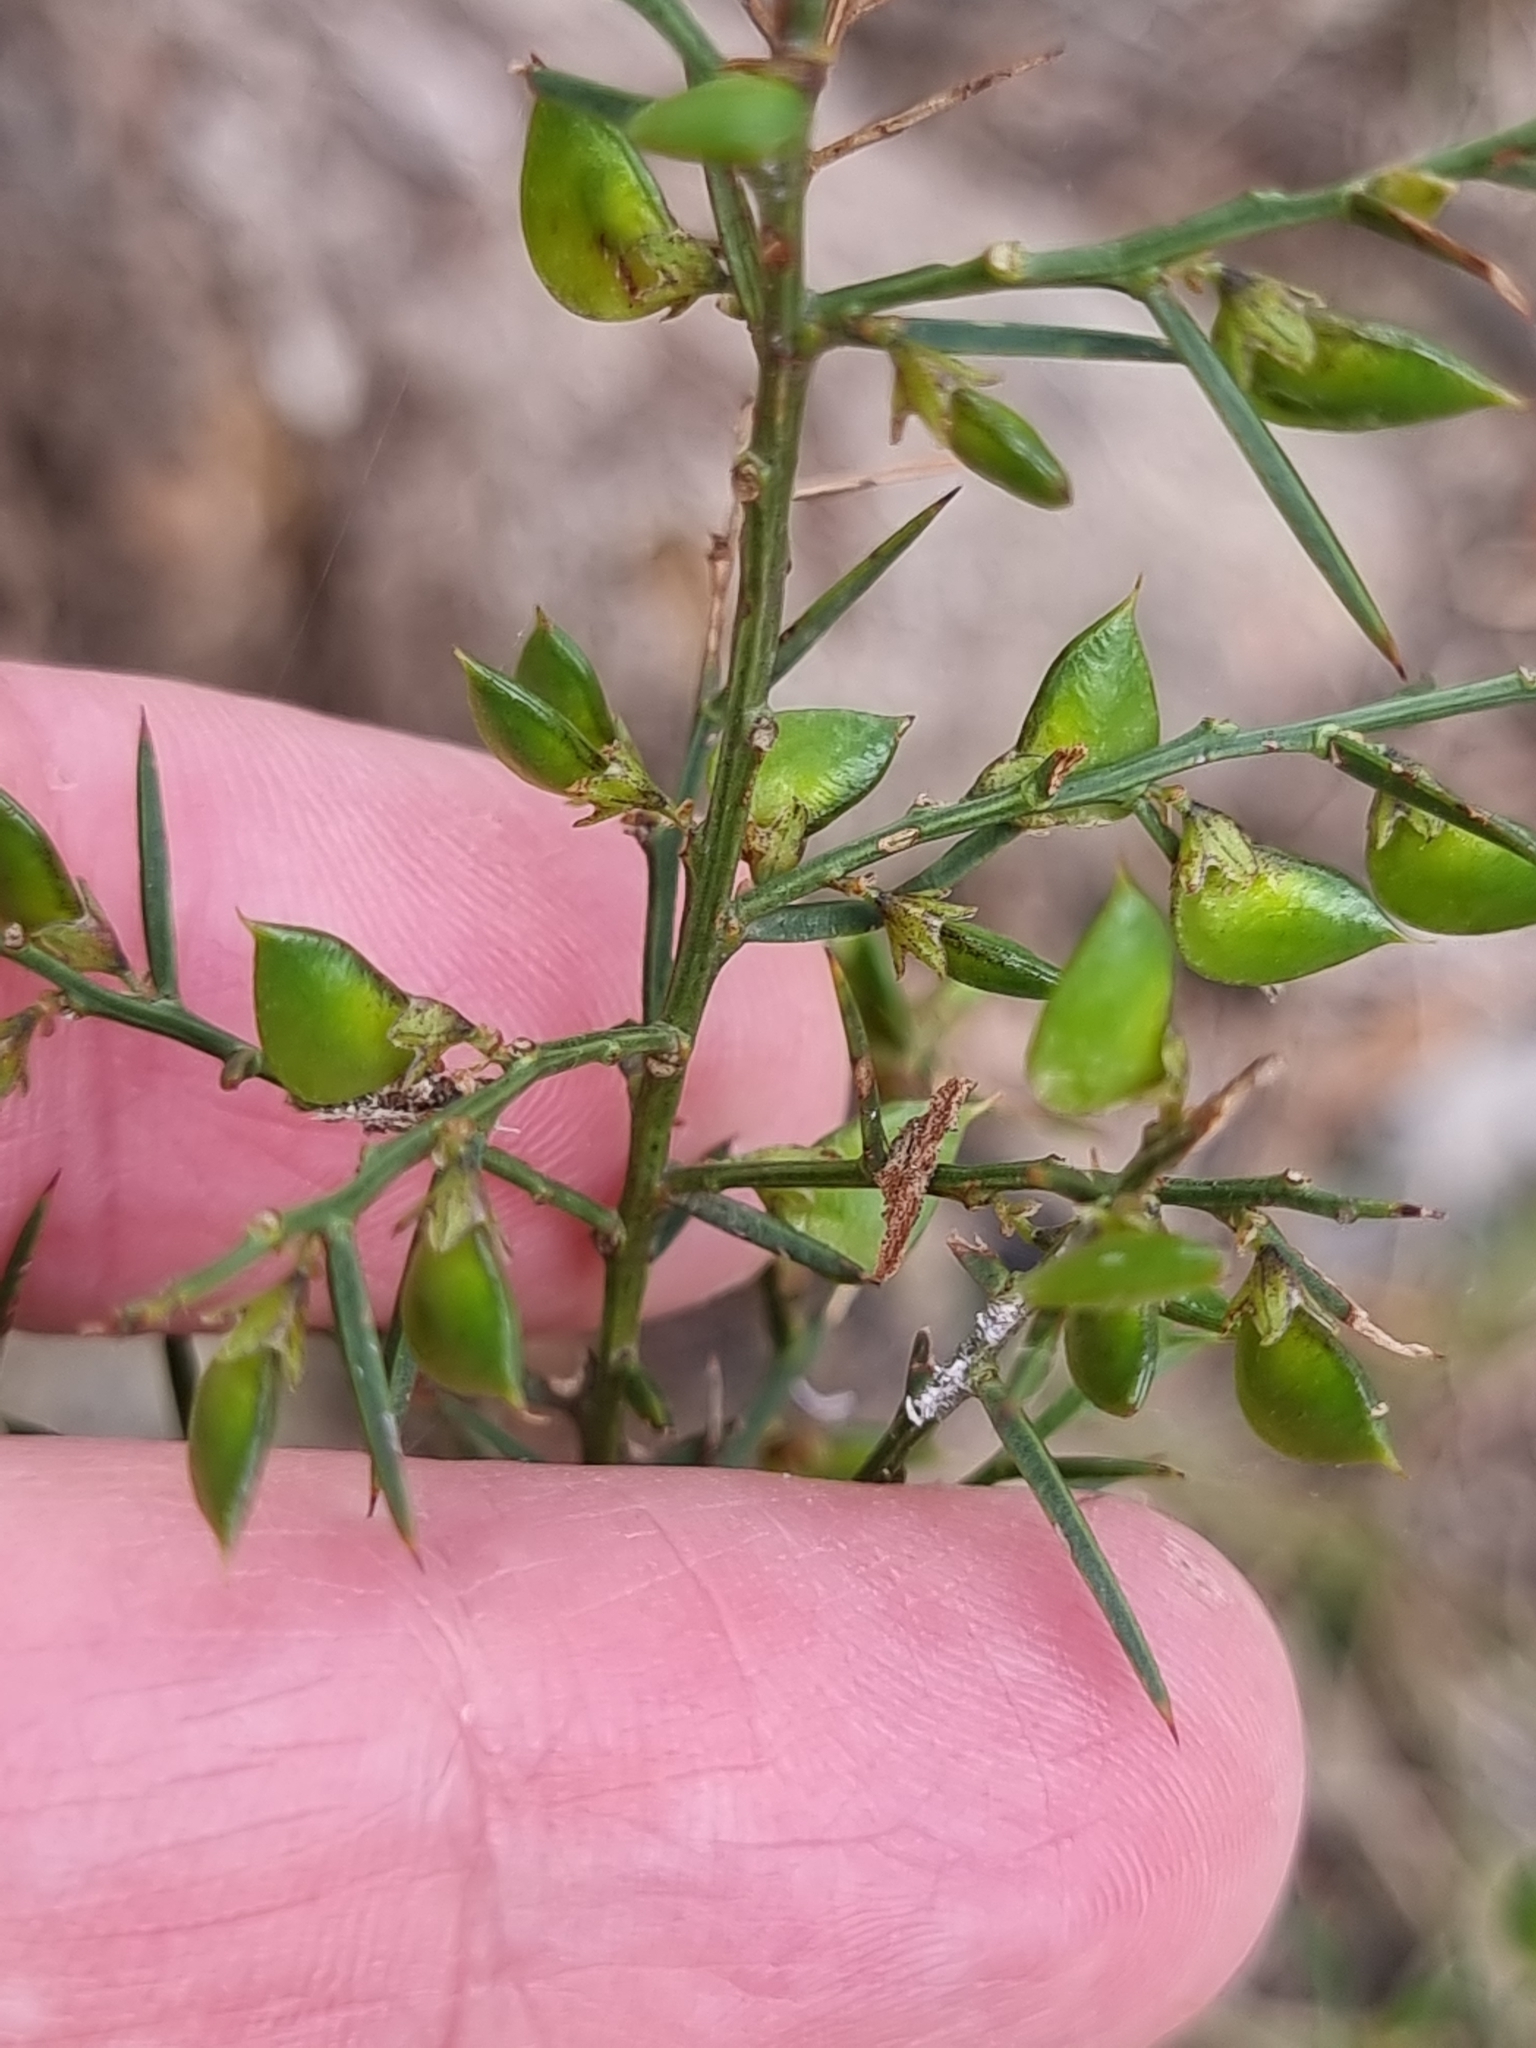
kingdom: Plantae
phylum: Tracheophyta
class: Magnoliopsida
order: Fabales
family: Fabaceae
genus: Daviesia
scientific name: Daviesia ulicifolia
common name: Gorse bitter-pea
